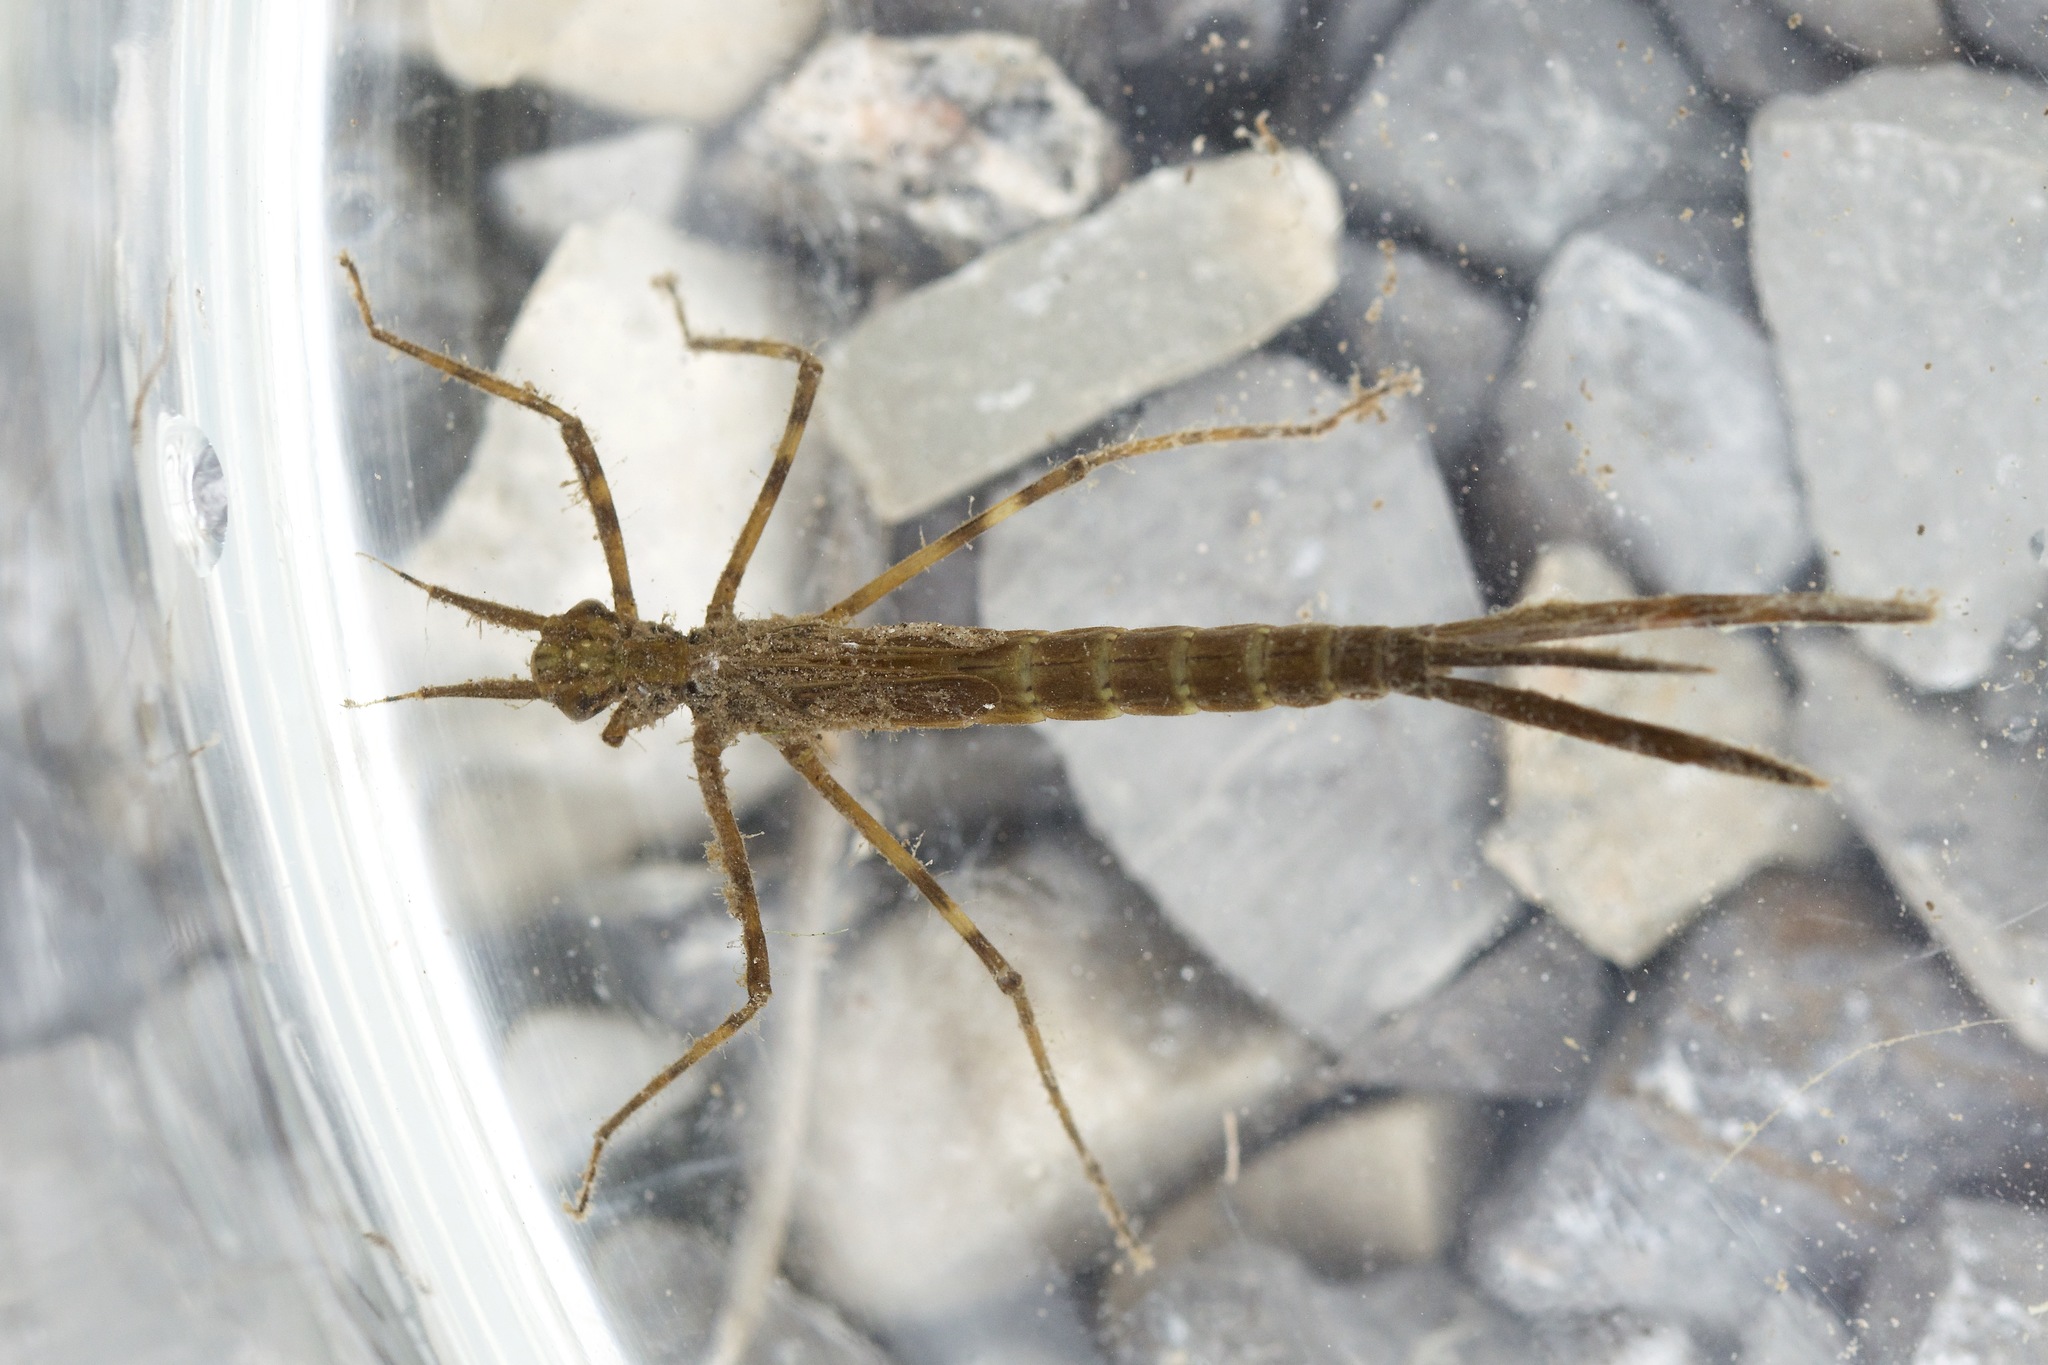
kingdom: Animalia
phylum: Arthropoda
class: Insecta
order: Odonata
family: Calopterygidae
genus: Calopteryx
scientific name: Calopteryx maculata
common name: Ebony jewelwing
